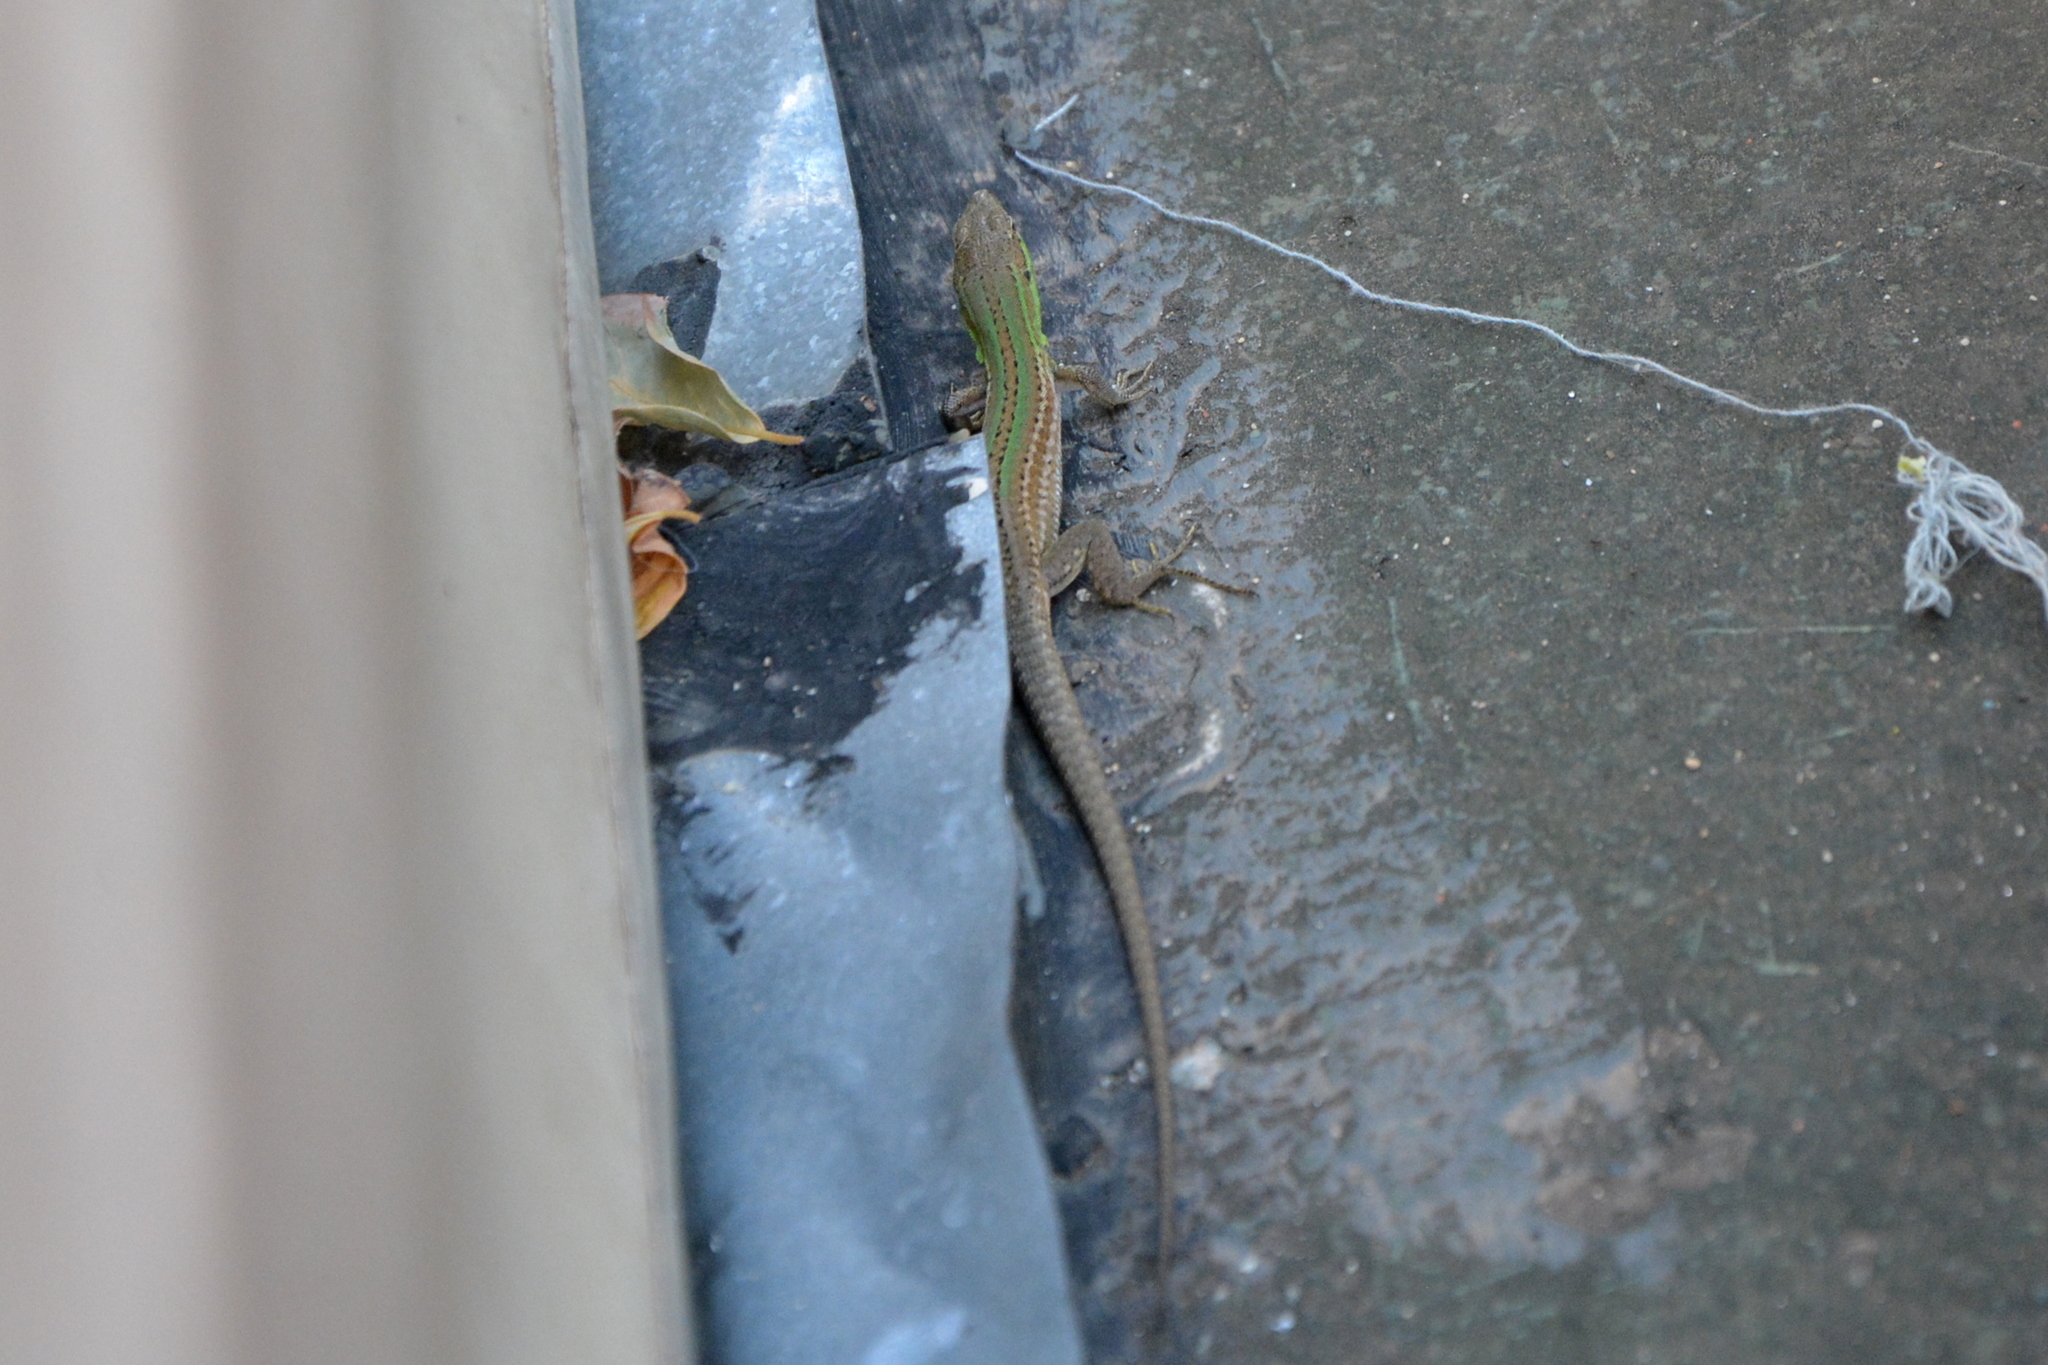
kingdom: Animalia
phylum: Chordata
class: Squamata
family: Lacertidae
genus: Podarcis
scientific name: Podarcis siculus
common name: Italian wall lizard
